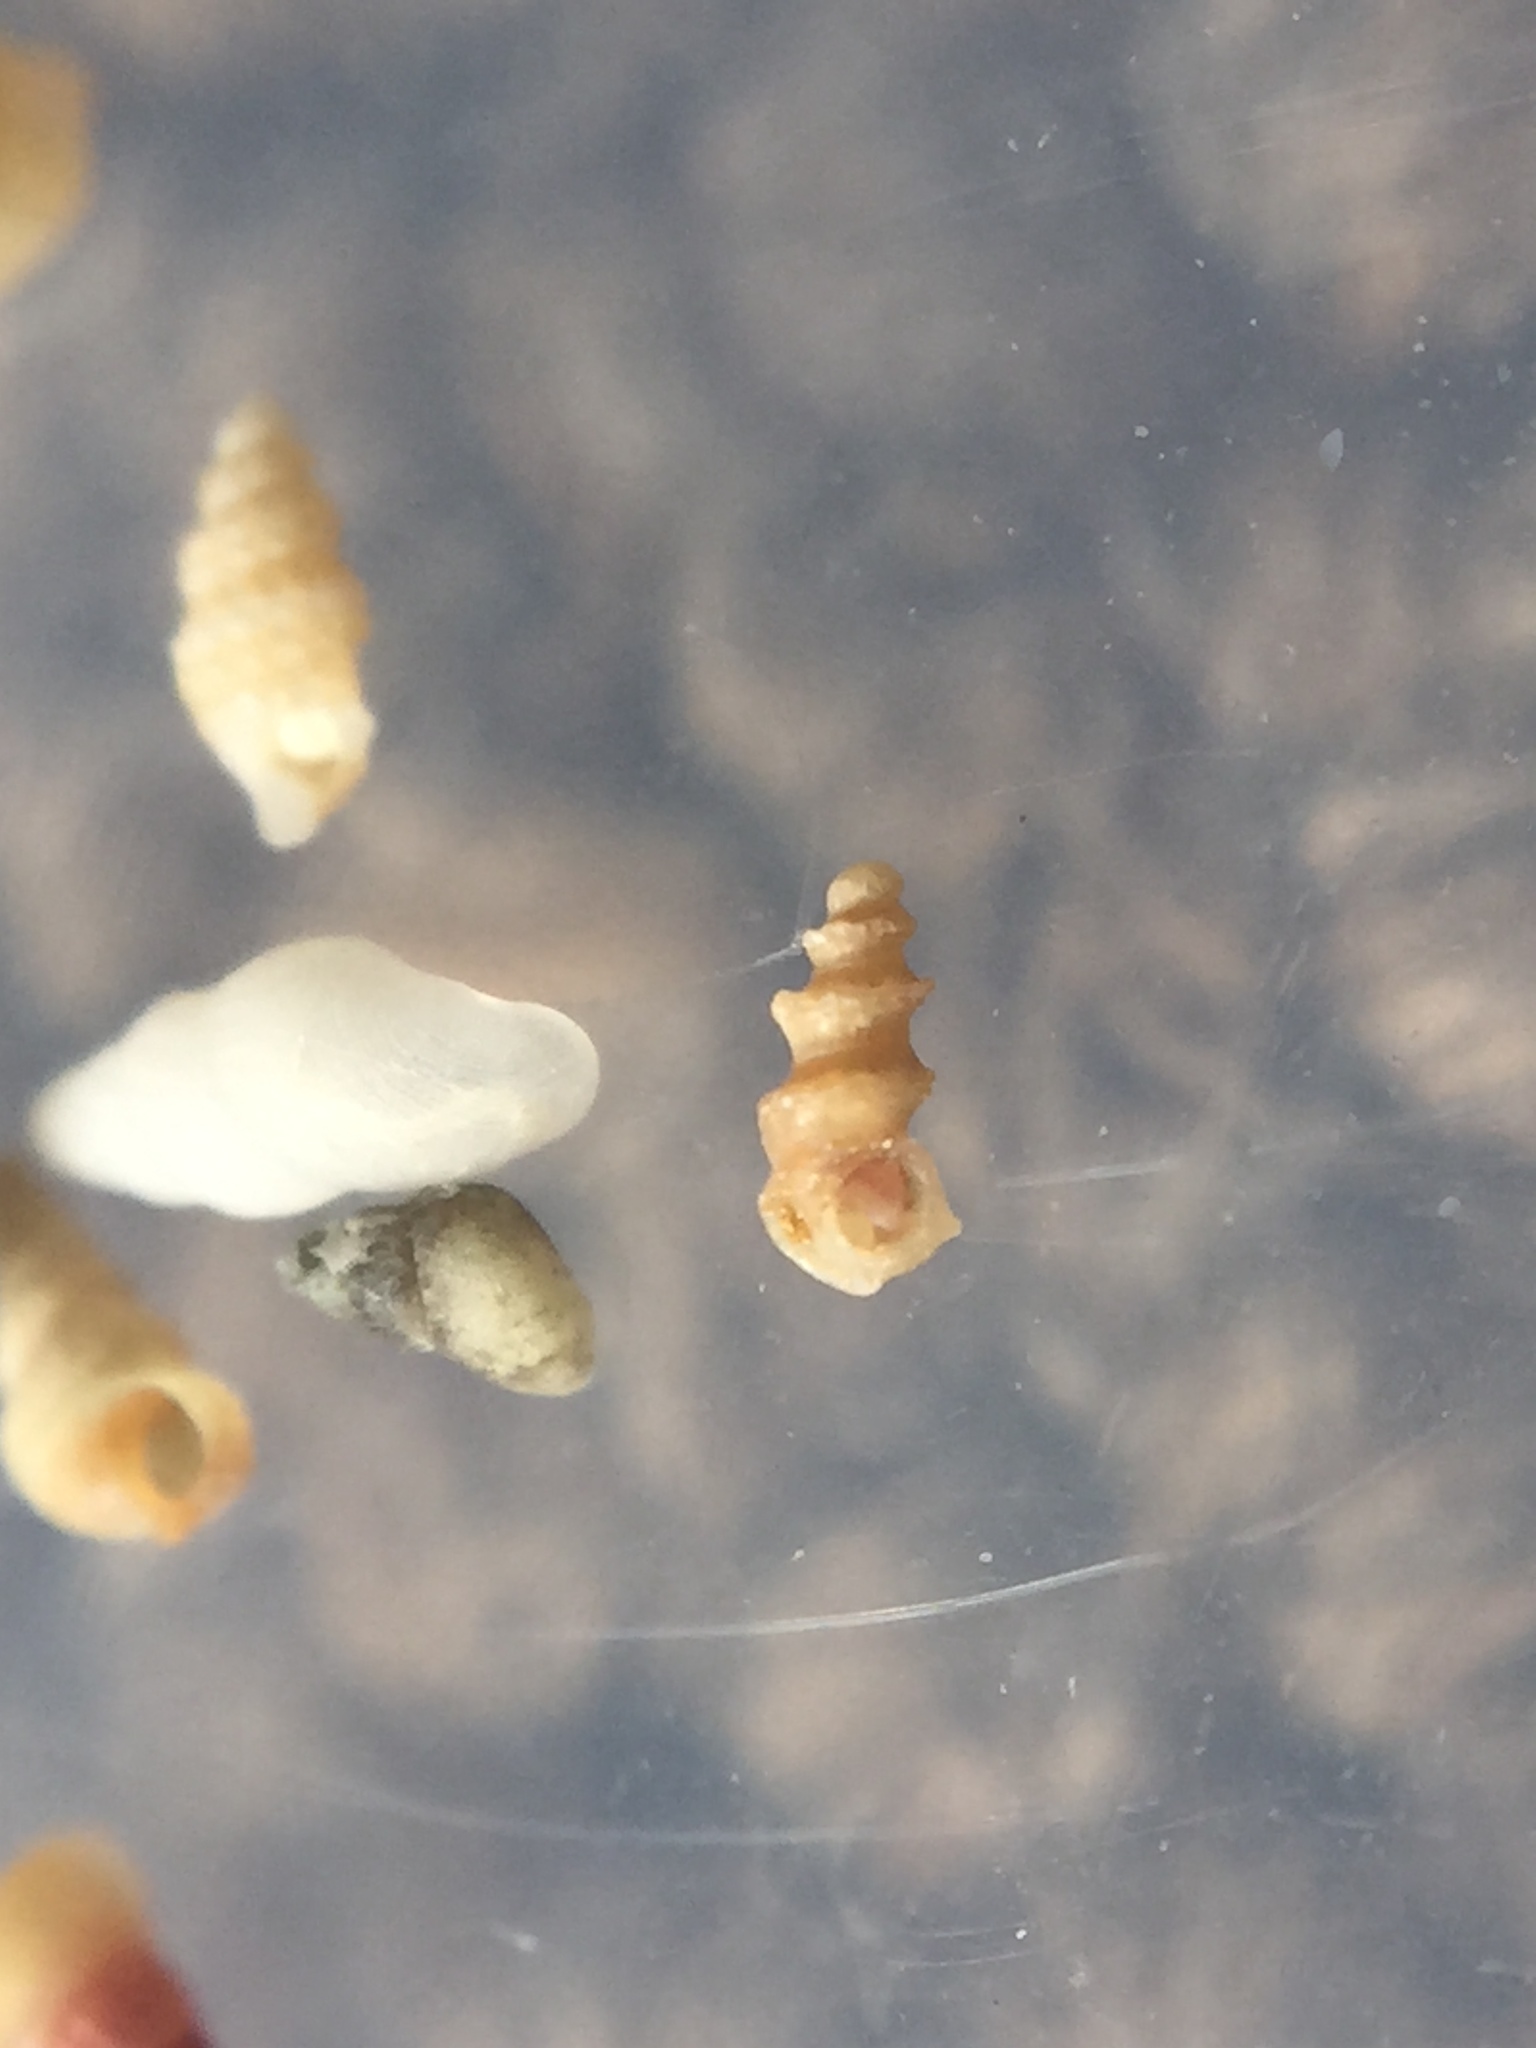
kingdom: Animalia
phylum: Mollusca
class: Gastropoda
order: Littorinimorpha
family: Lironobidae
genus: Merelina
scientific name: Merelina coronata
